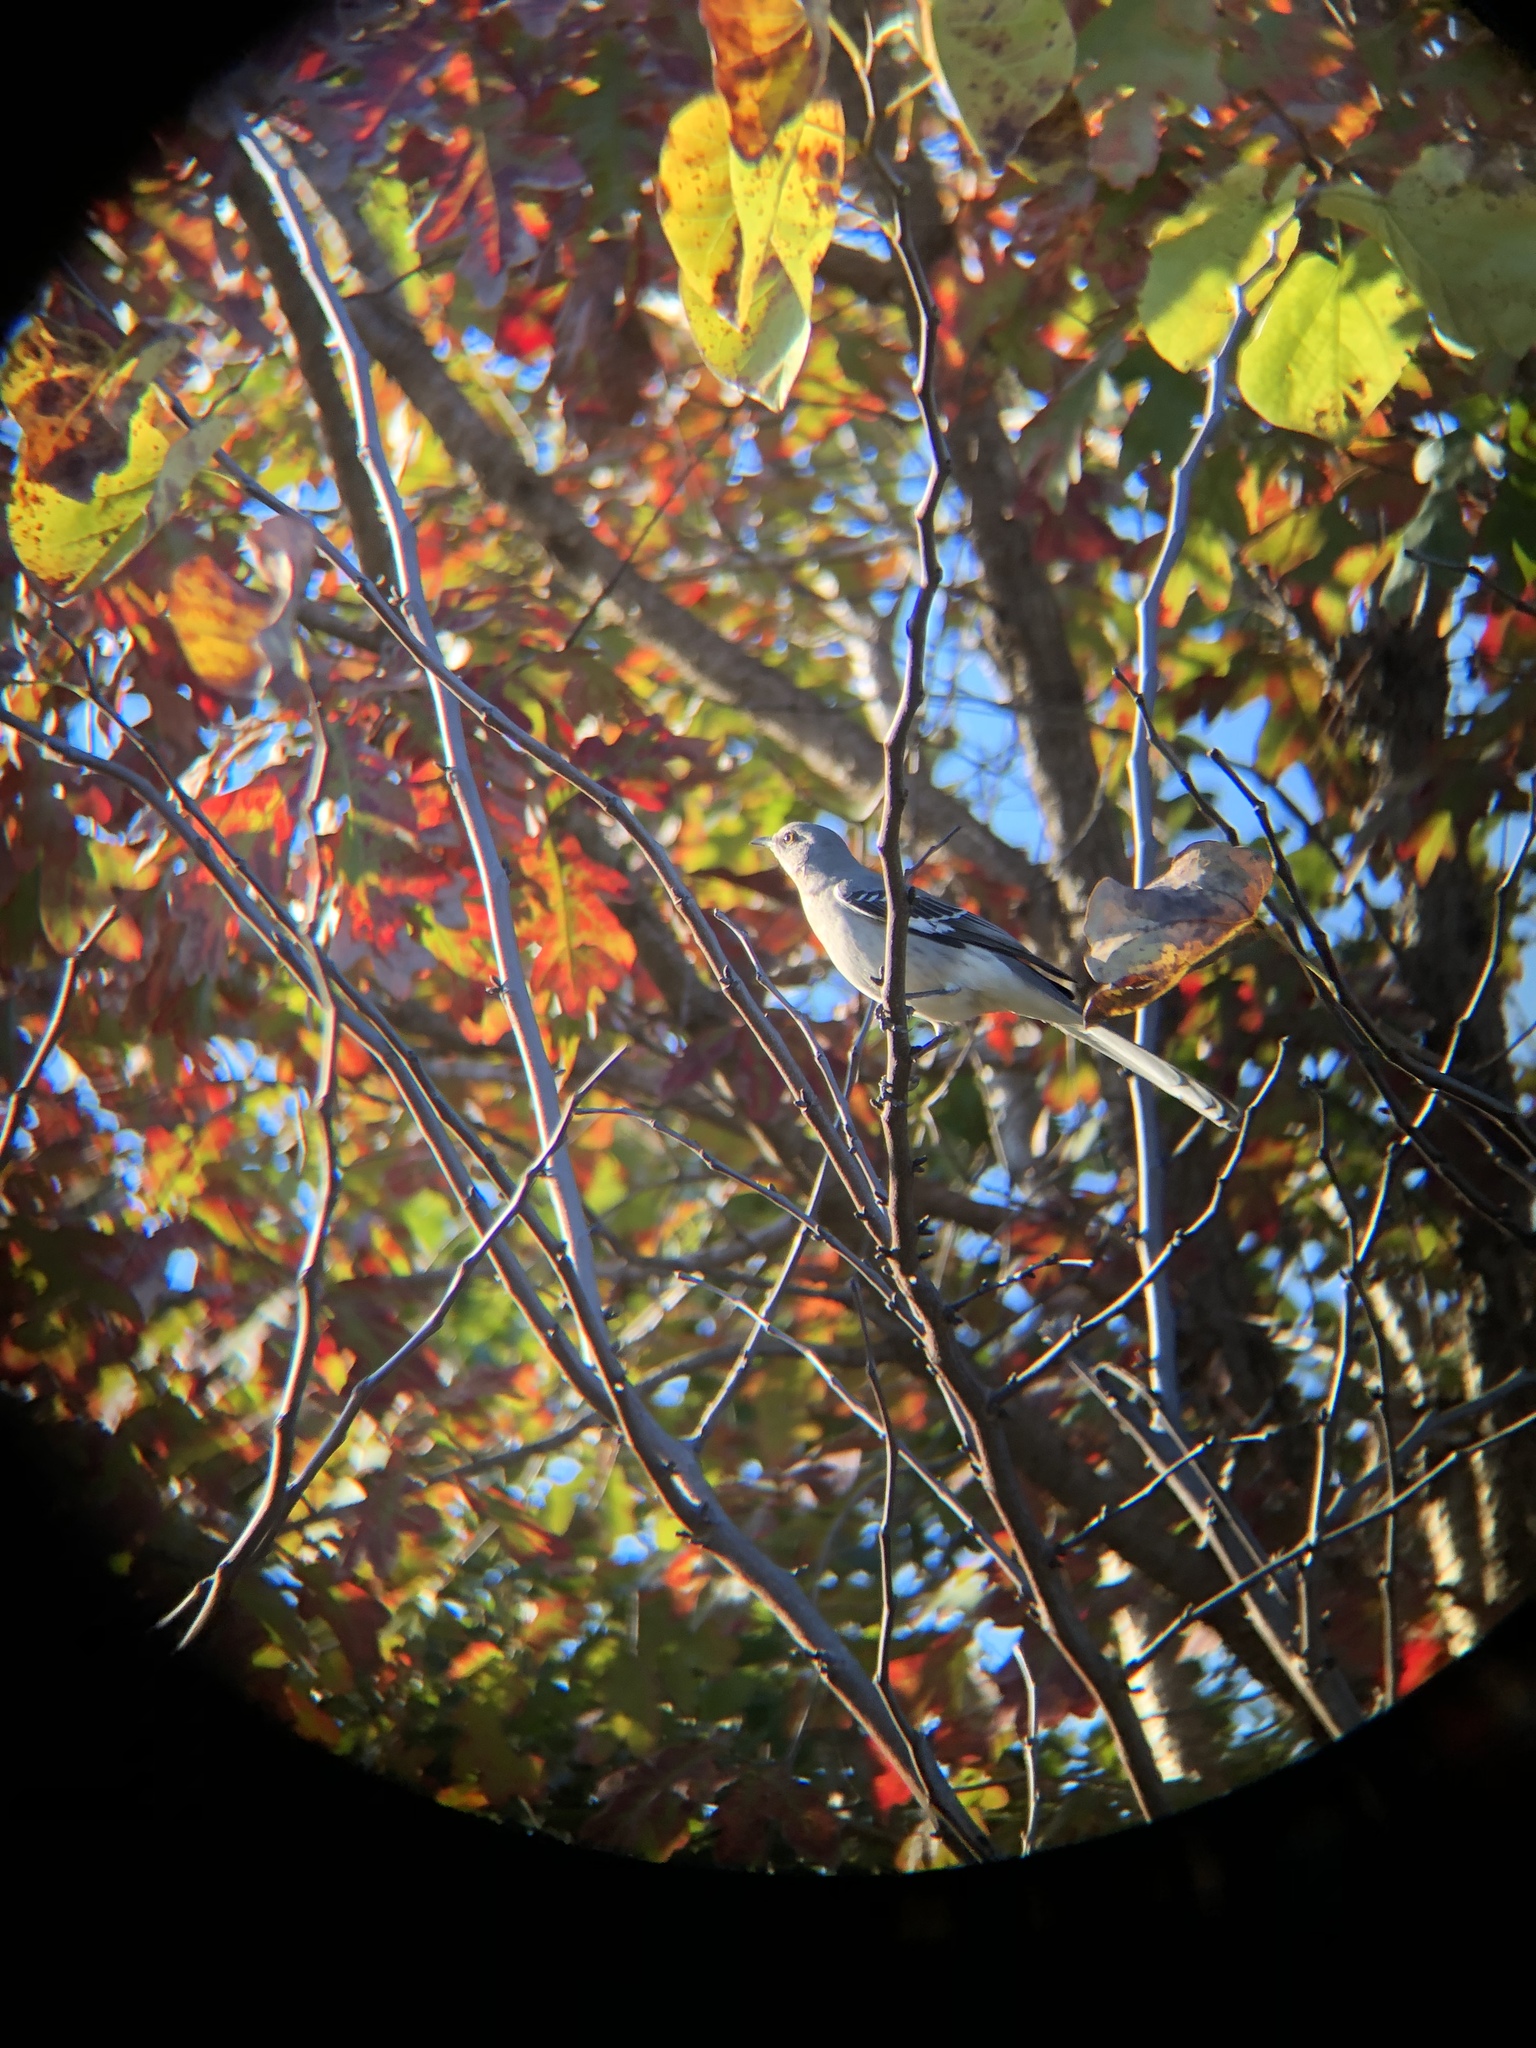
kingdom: Animalia
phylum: Chordata
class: Aves
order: Passeriformes
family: Mimidae
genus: Mimus
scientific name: Mimus polyglottos
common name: Northern mockingbird
